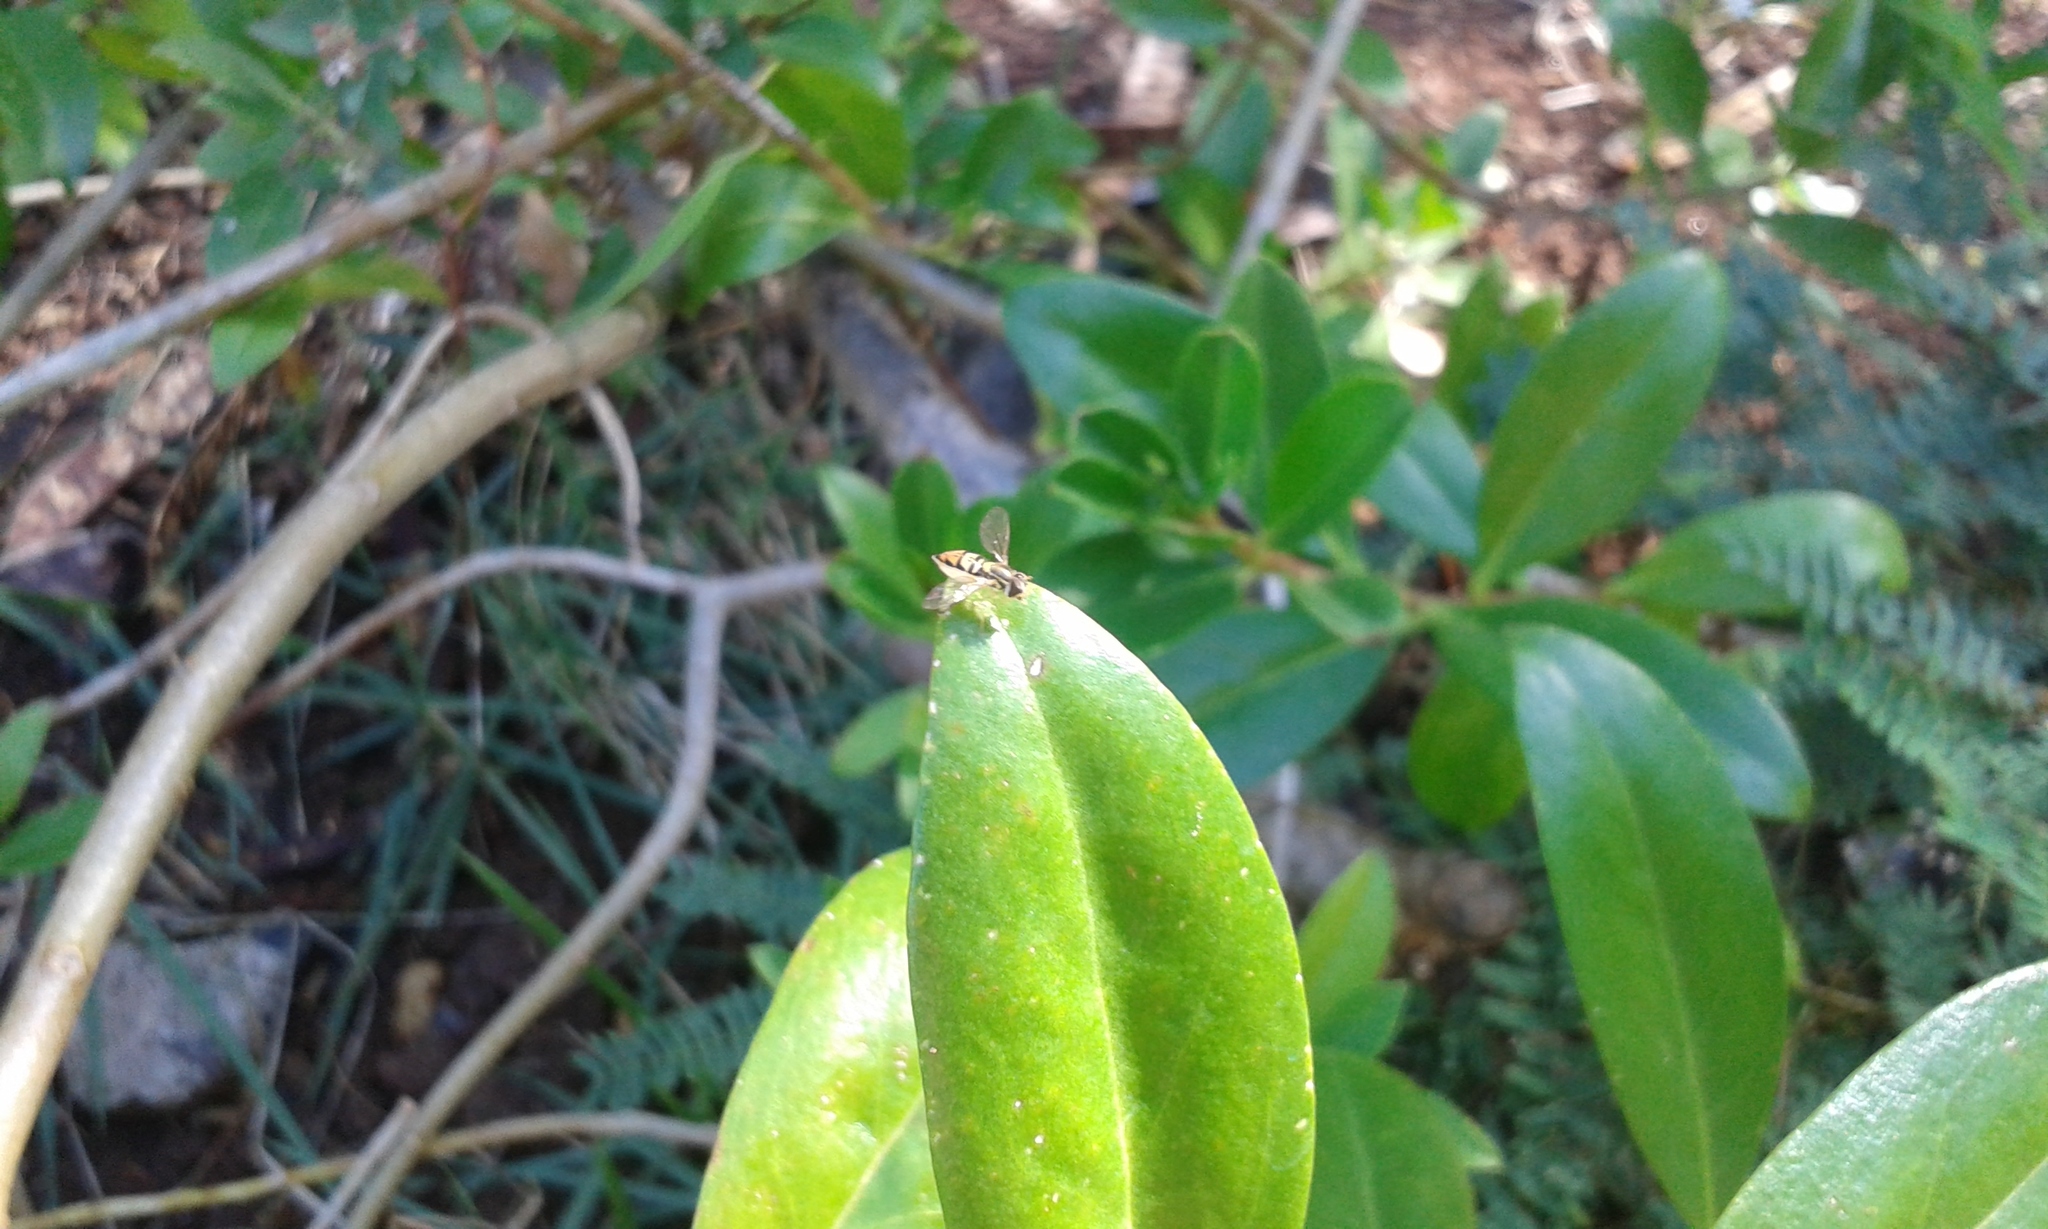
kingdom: Animalia
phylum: Arthropoda
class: Insecta
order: Diptera
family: Syrphidae
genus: Toxomerus
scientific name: Toxomerus marginatus
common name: Syrphid fly
